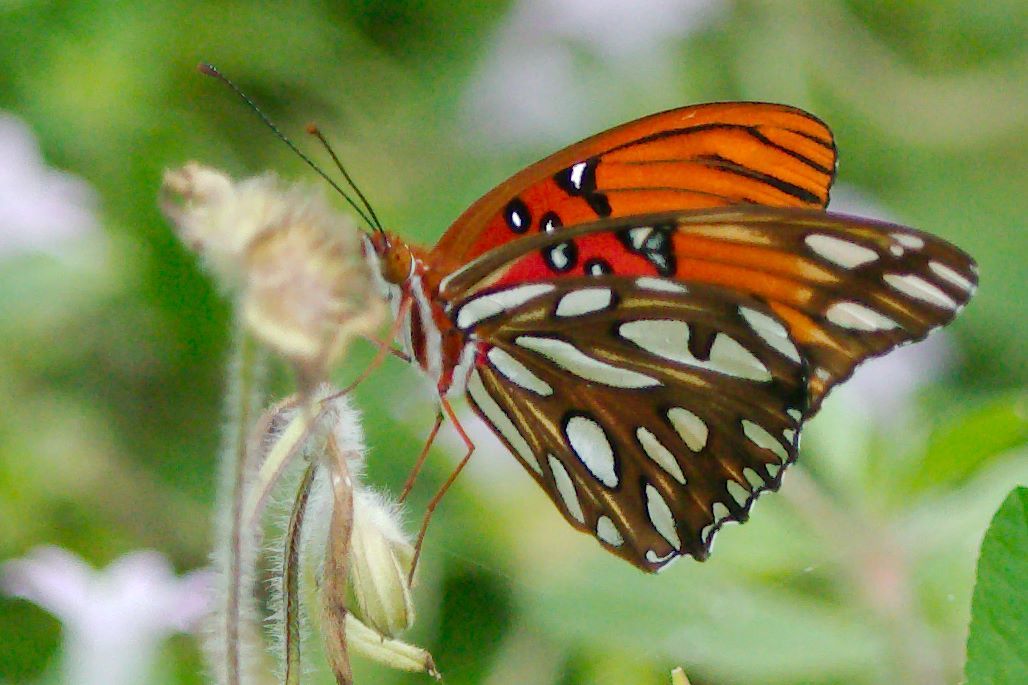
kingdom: Animalia
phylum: Arthropoda
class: Insecta
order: Lepidoptera
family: Nymphalidae
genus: Dione
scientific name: Dione vanillae
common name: Gulf fritillary
